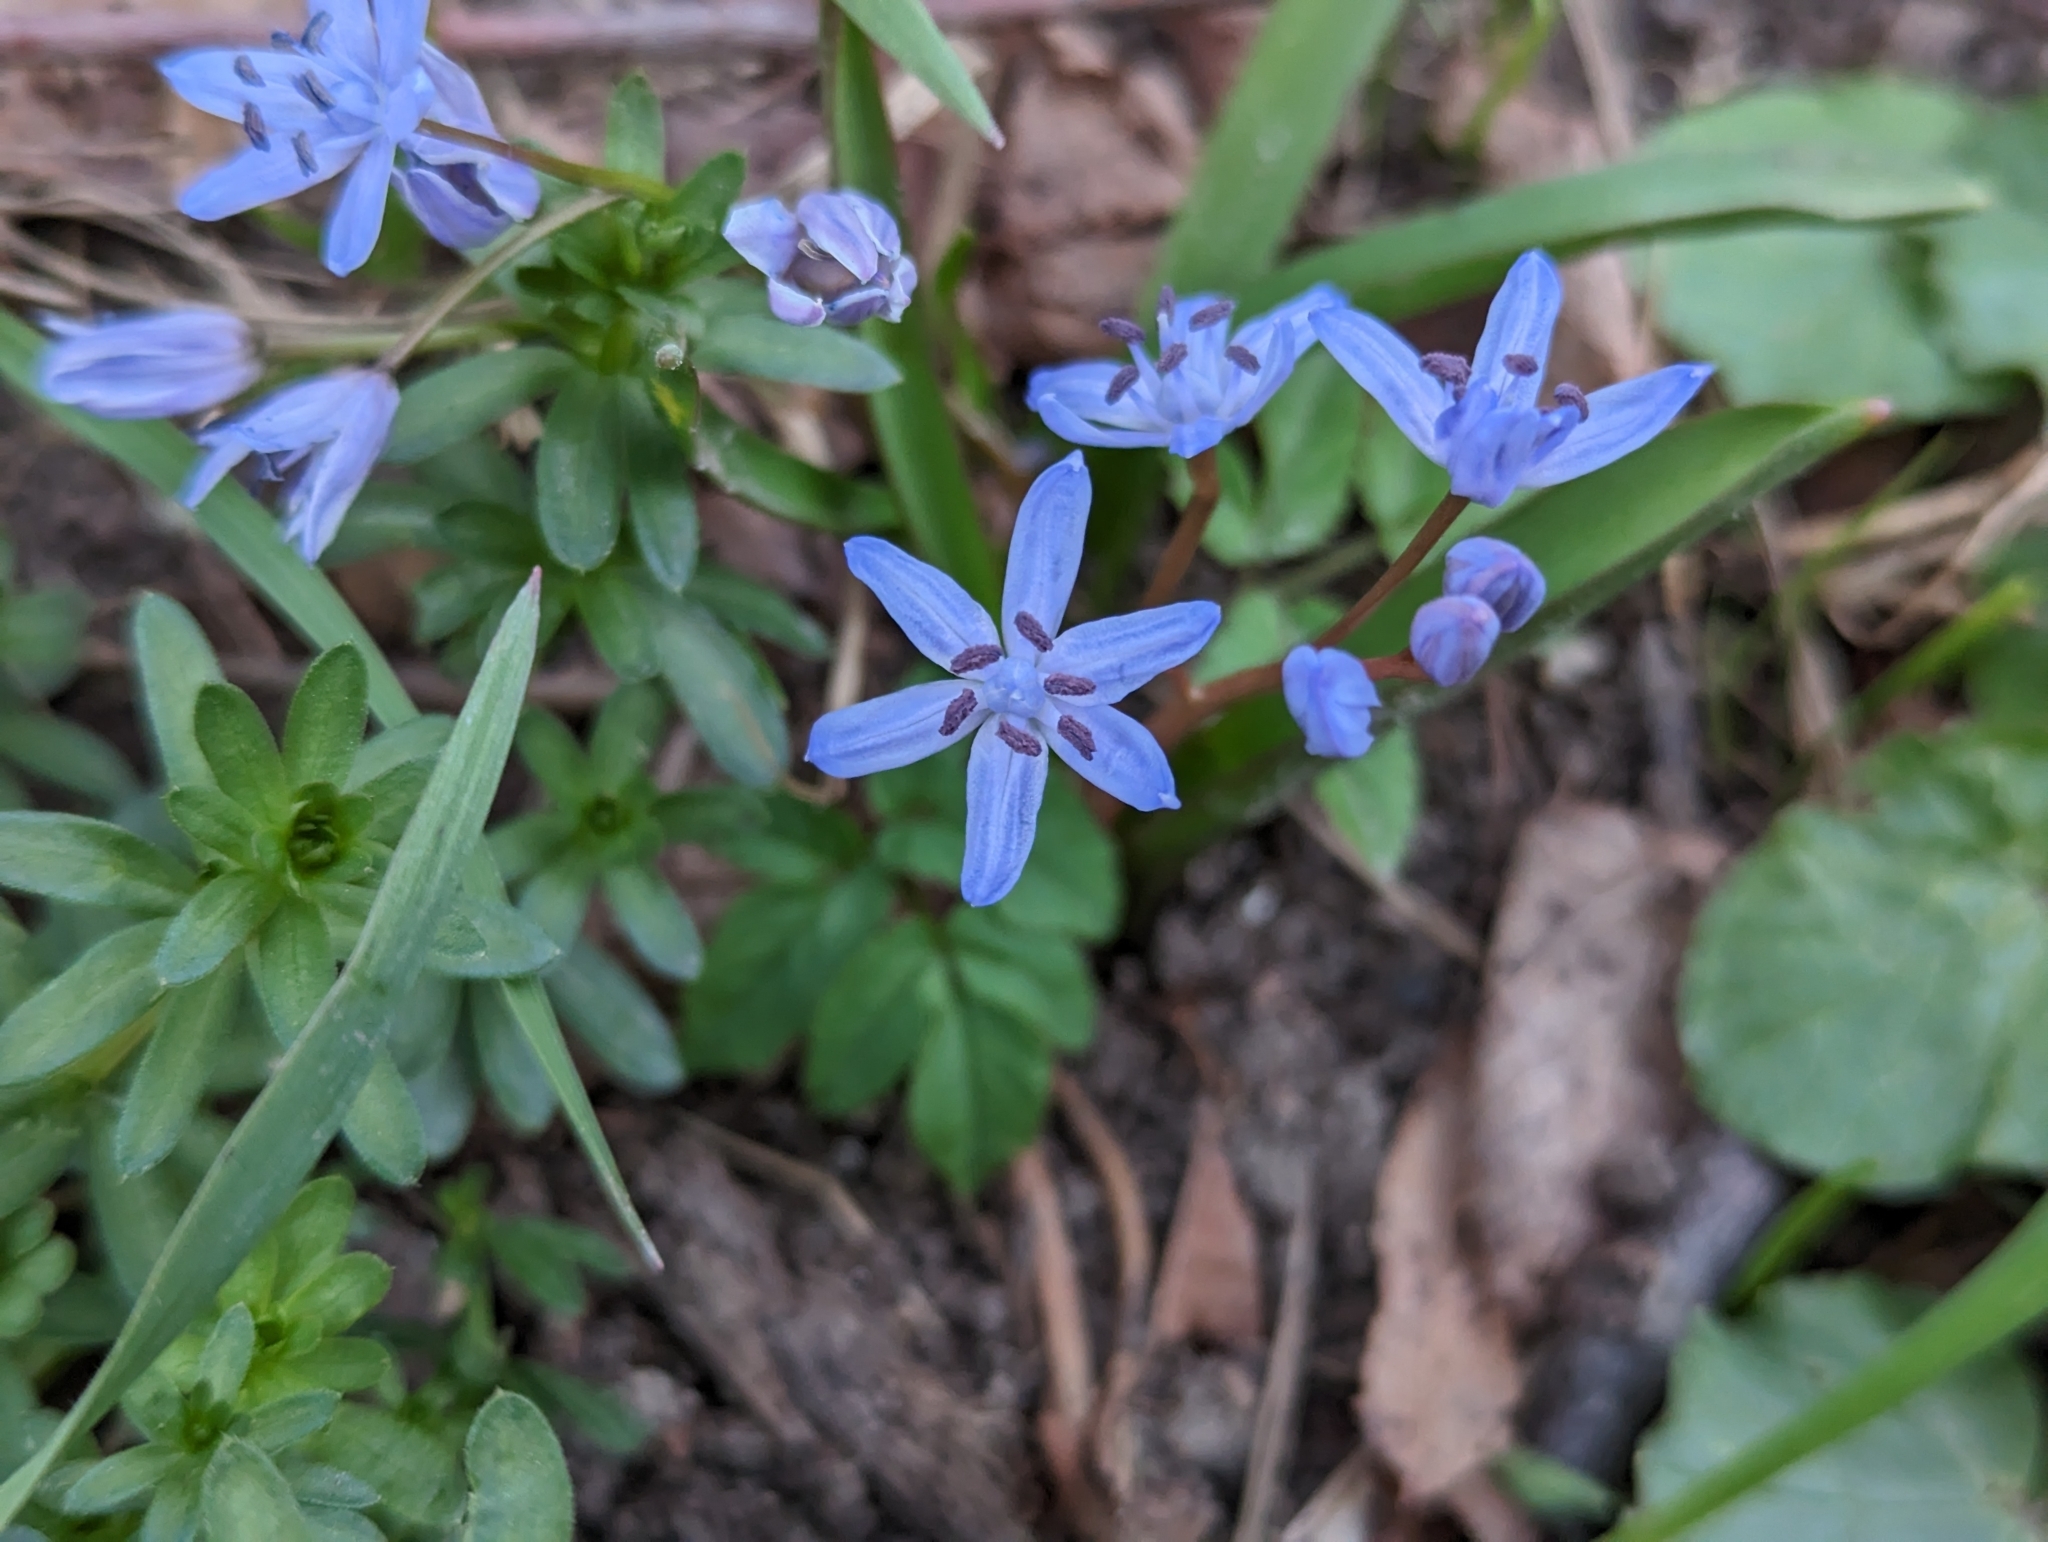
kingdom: Plantae
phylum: Tracheophyta
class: Liliopsida
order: Asparagales
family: Asparagaceae
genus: Scilla
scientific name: Scilla bifolia
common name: Alpine squill
